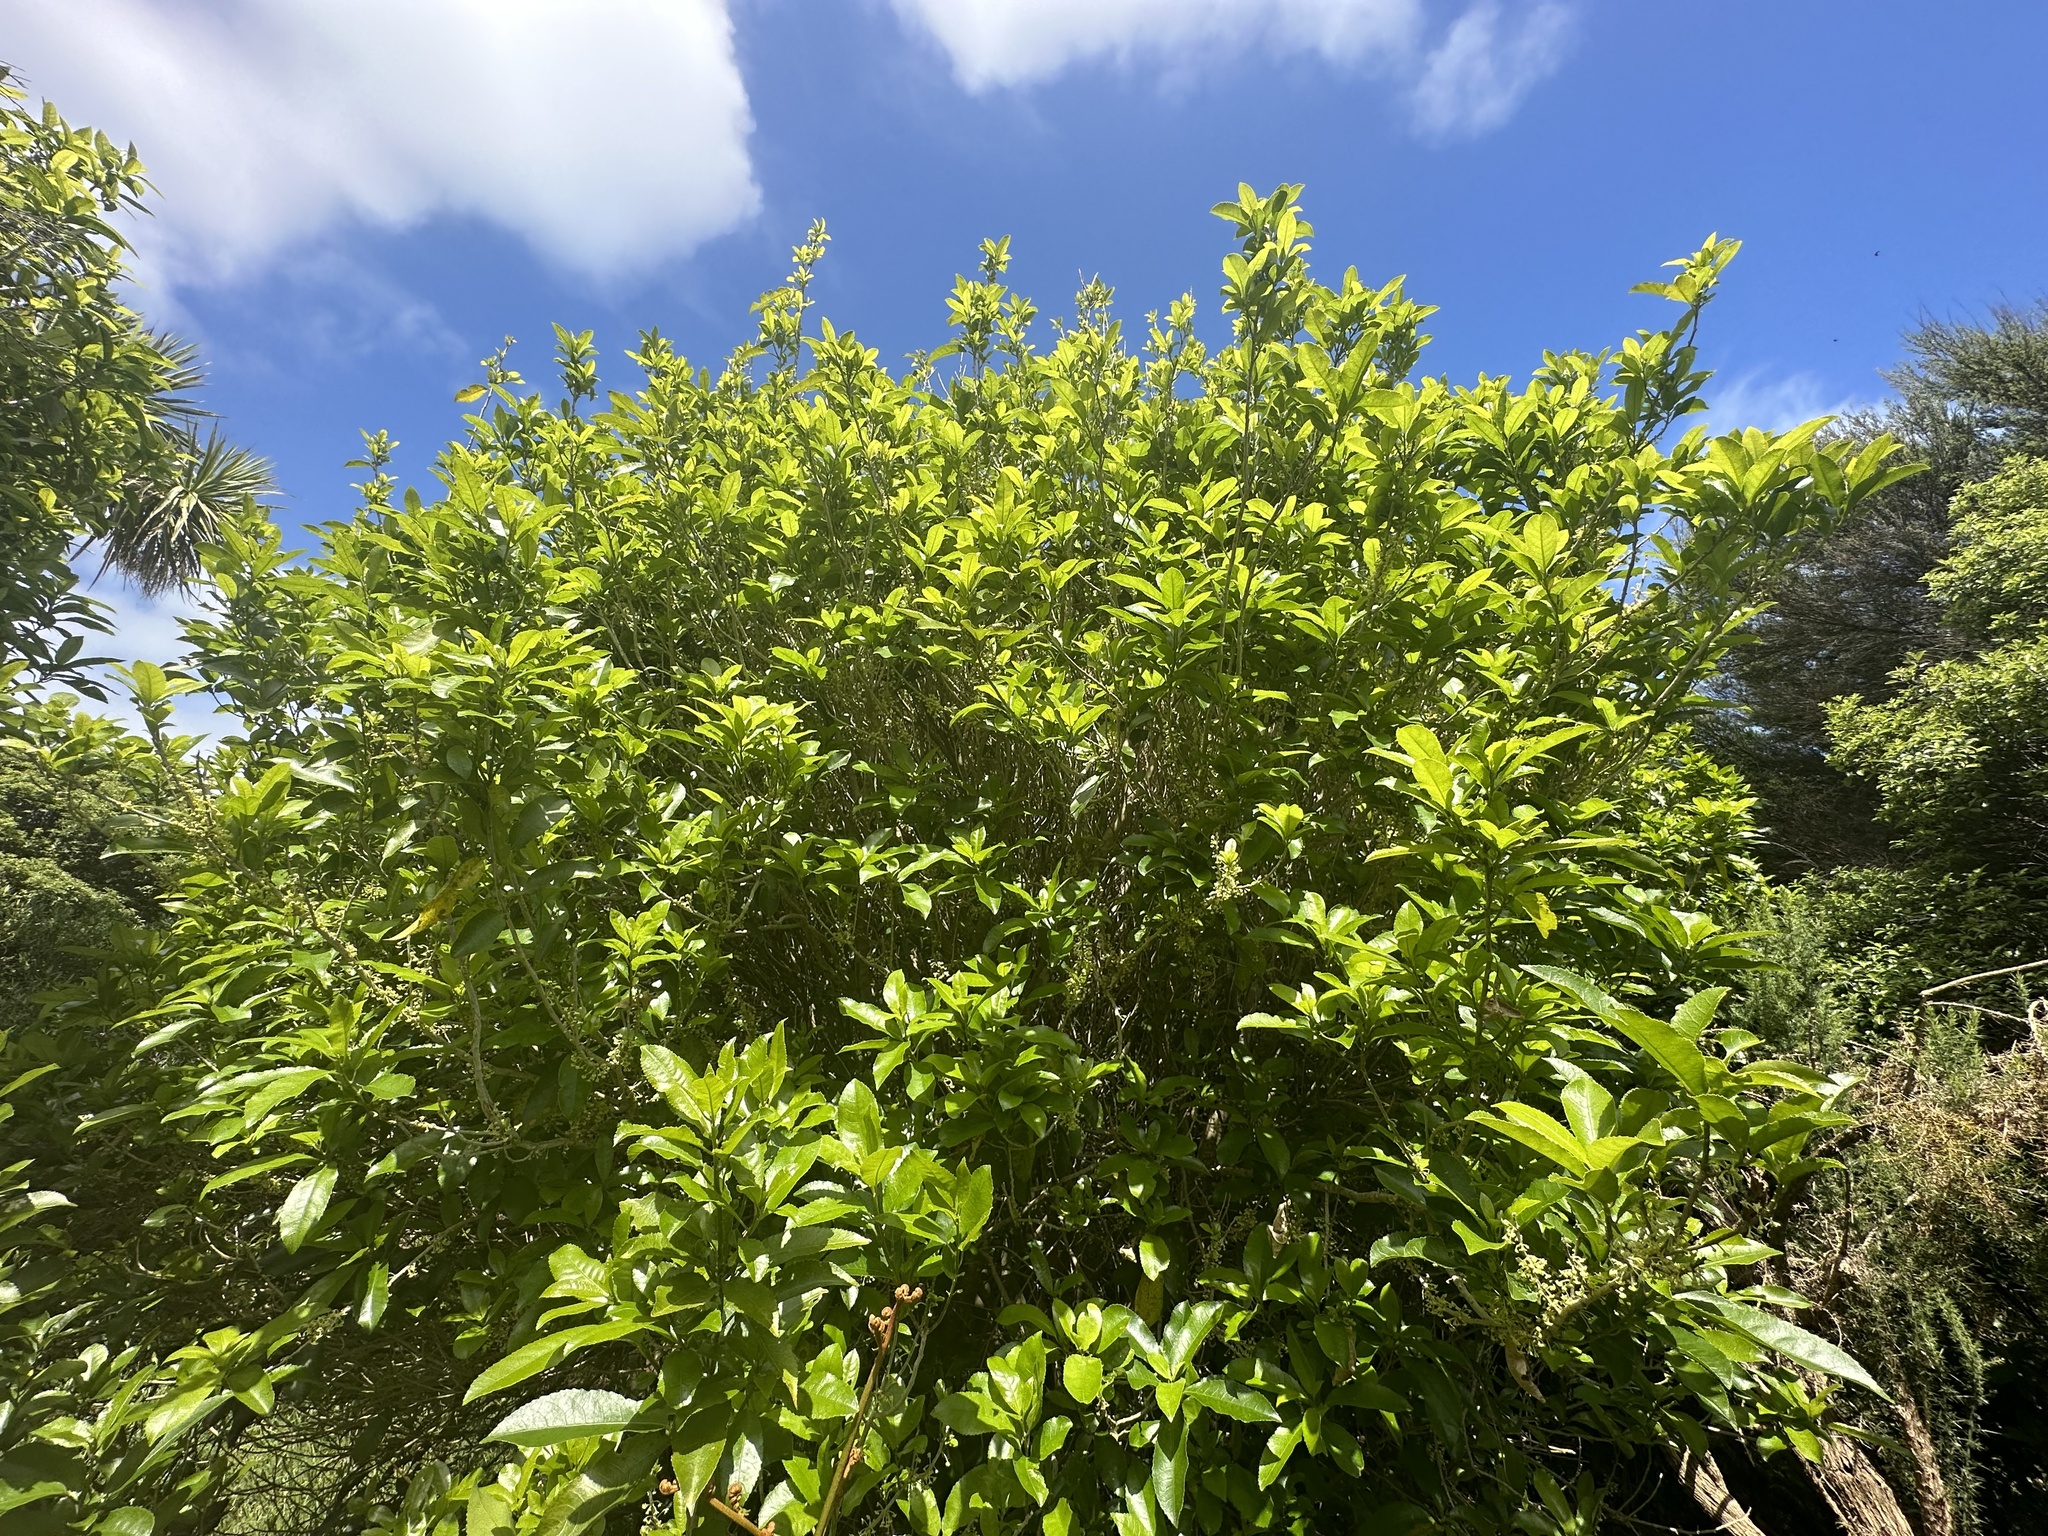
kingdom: Plantae
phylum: Tracheophyta
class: Magnoliopsida
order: Malpighiales
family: Violaceae
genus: Melicytus
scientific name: Melicytus ramiflorus
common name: Mahoe
